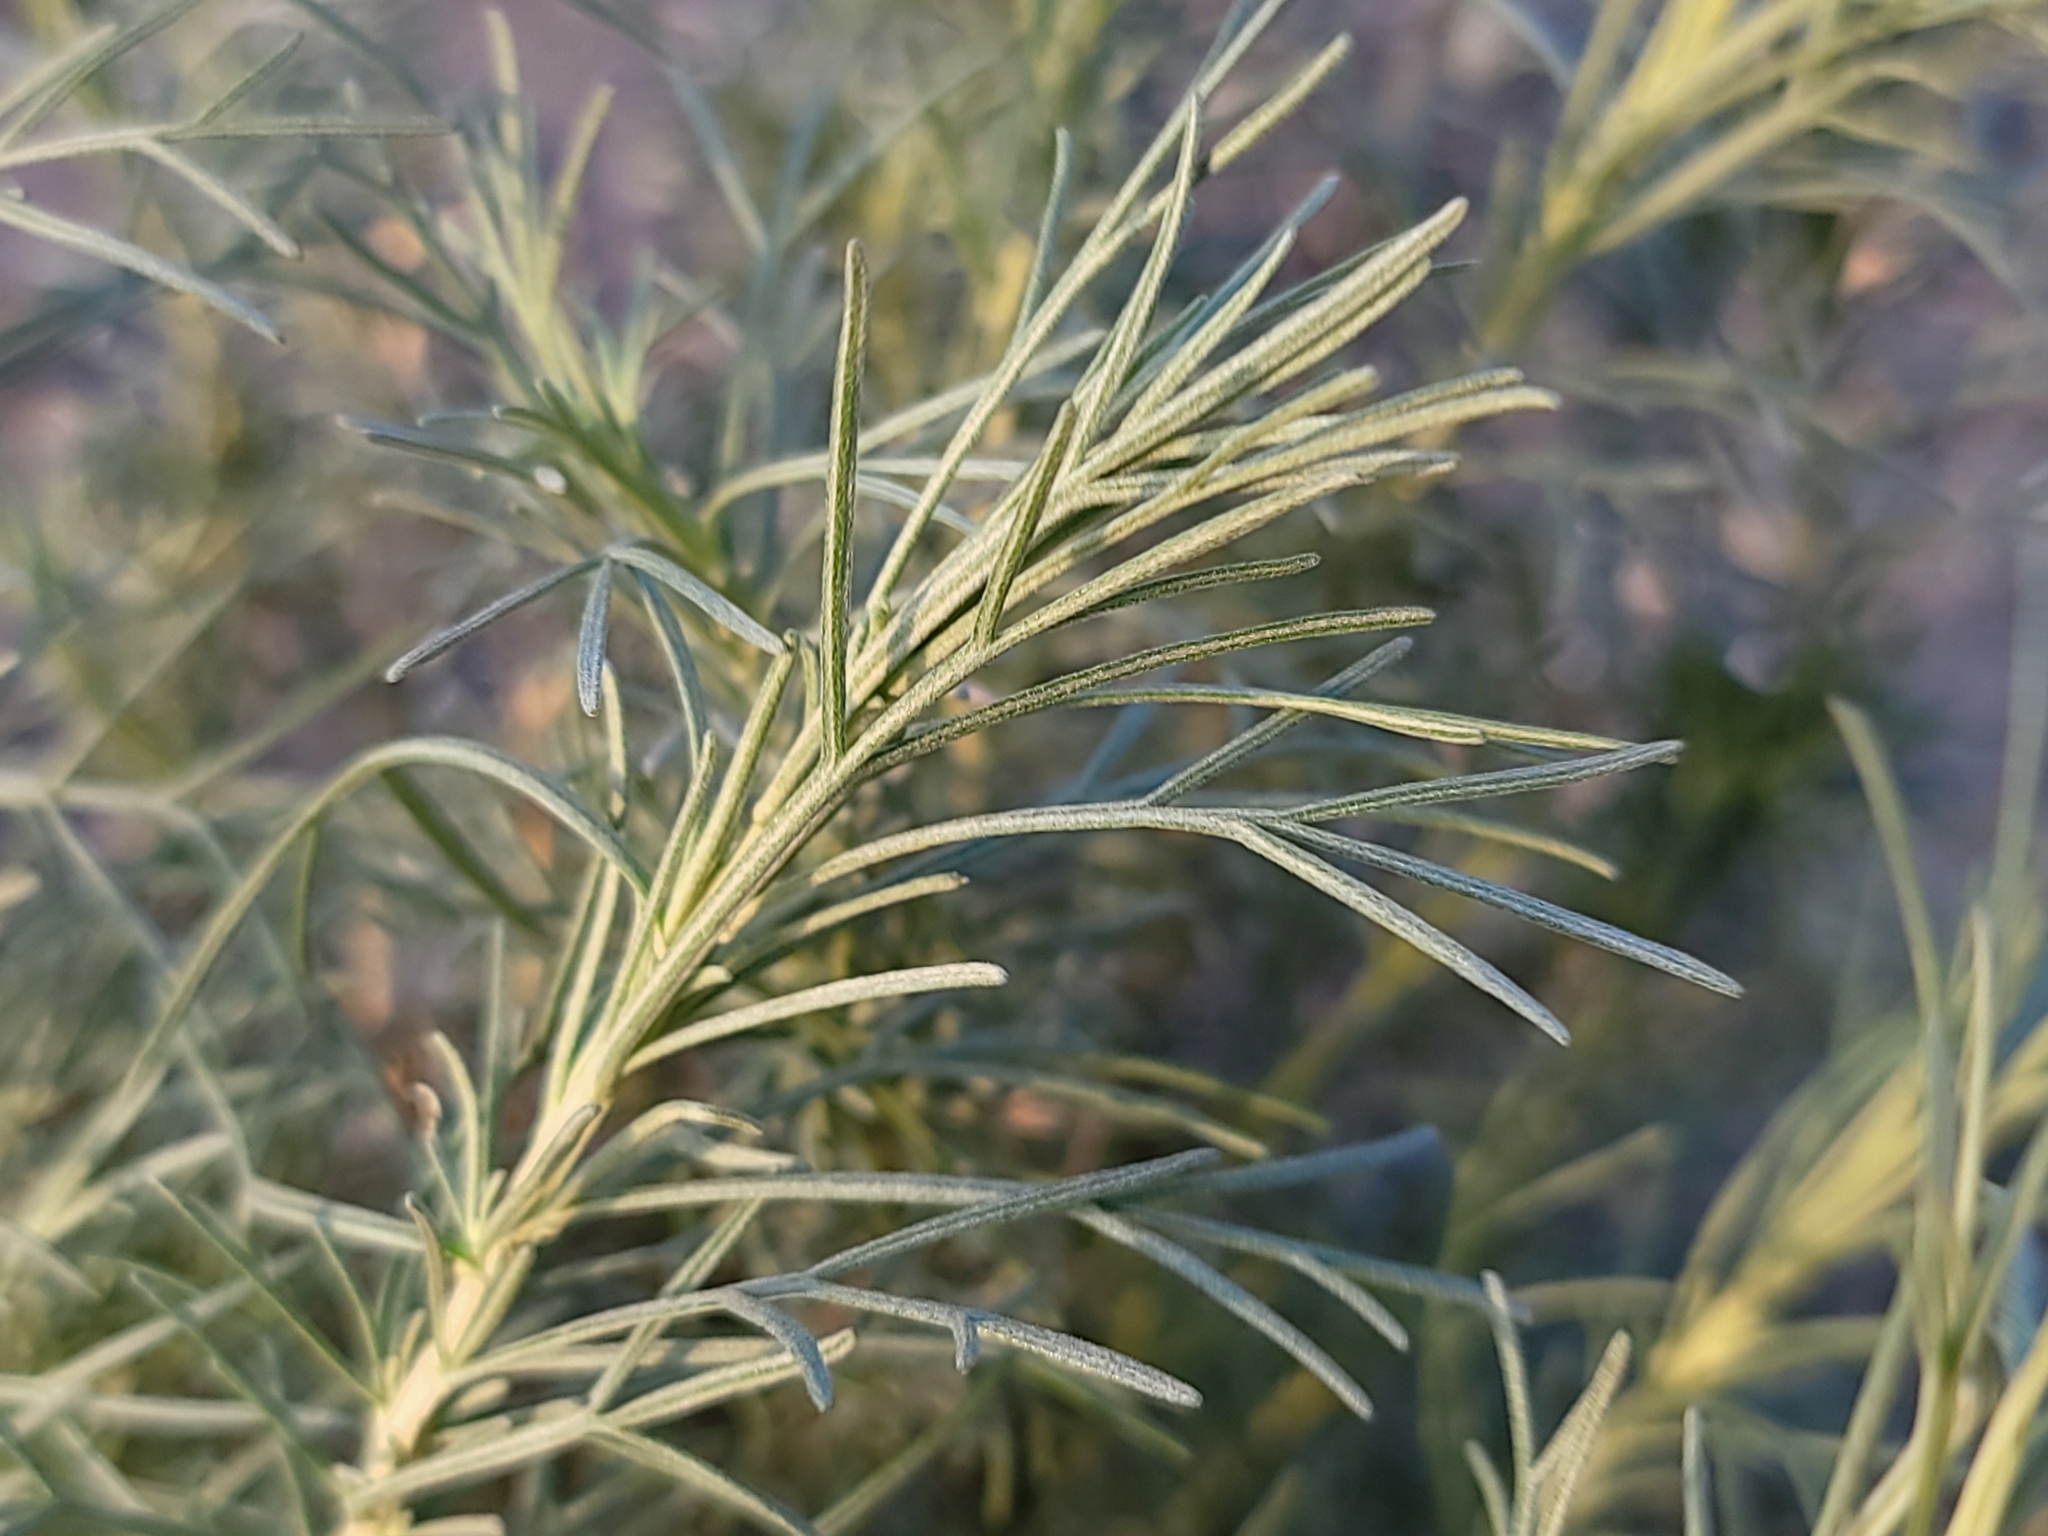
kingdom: Plantae
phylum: Tracheophyta
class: Magnoliopsida
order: Asterales
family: Asteraceae
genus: Artemisia
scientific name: Artemisia californica
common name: California sagebrush
